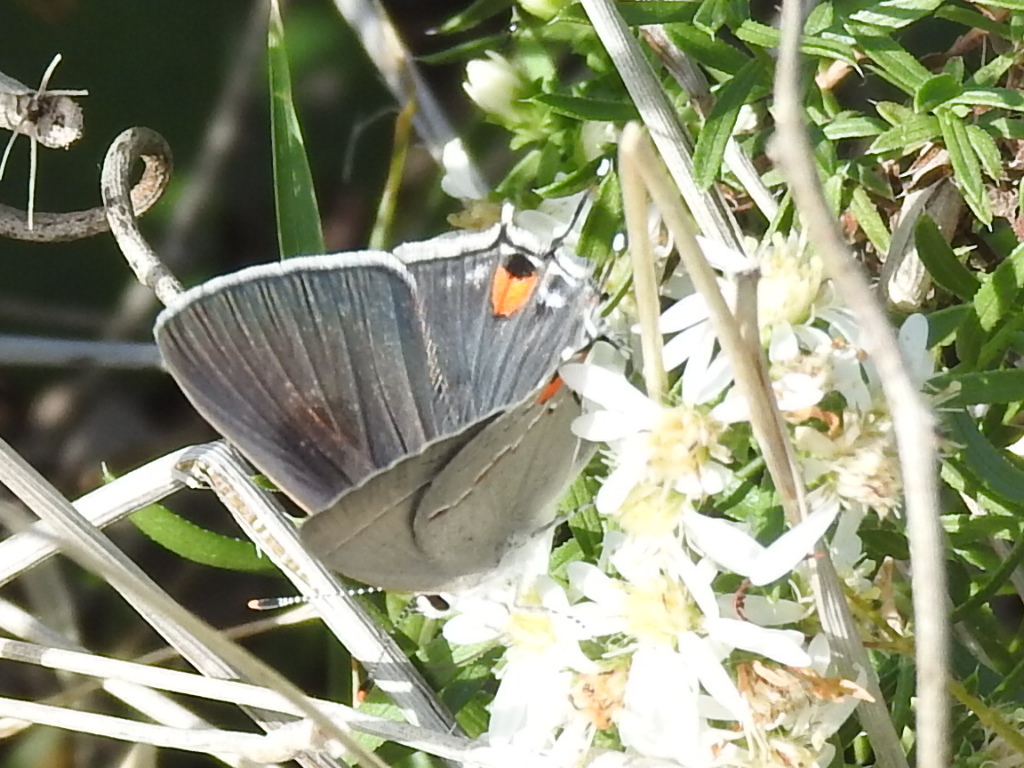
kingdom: Animalia
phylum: Arthropoda
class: Insecta
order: Lepidoptera
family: Lycaenidae
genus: Strymon
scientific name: Strymon melinus
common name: Gray hairstreak
